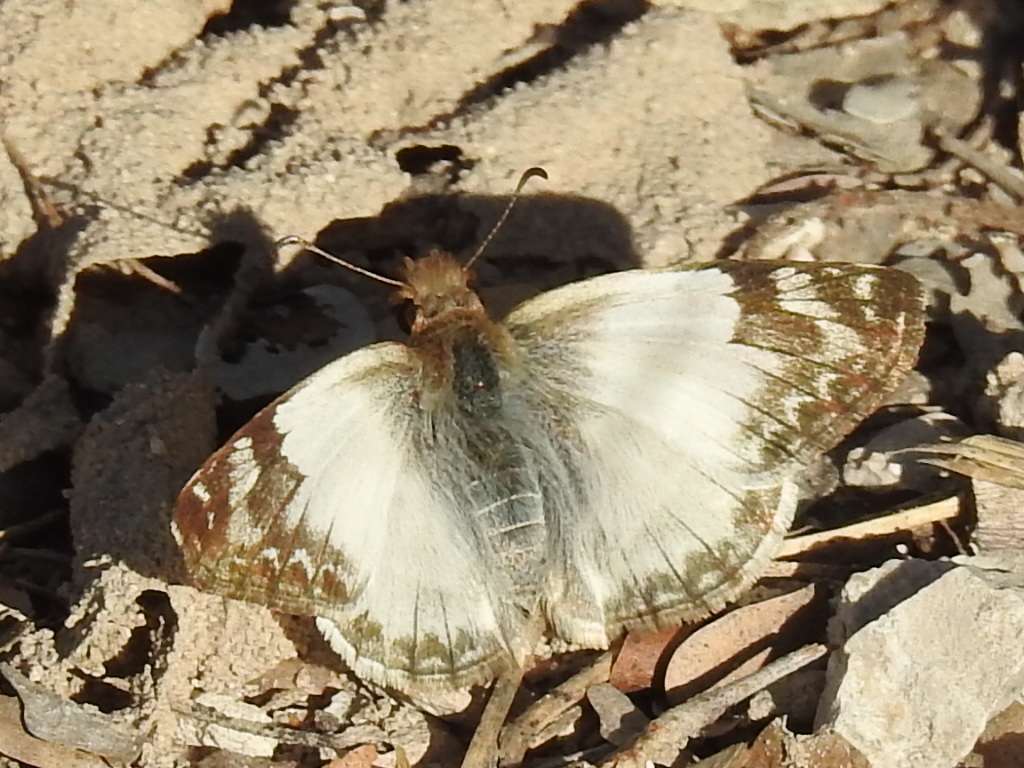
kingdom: Animalia
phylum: Arthropoda
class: Insecta
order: Lepidoptera
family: Hesperiidae
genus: Heliopetes
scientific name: Heliopetes laviana
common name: Laviana white-skipper
